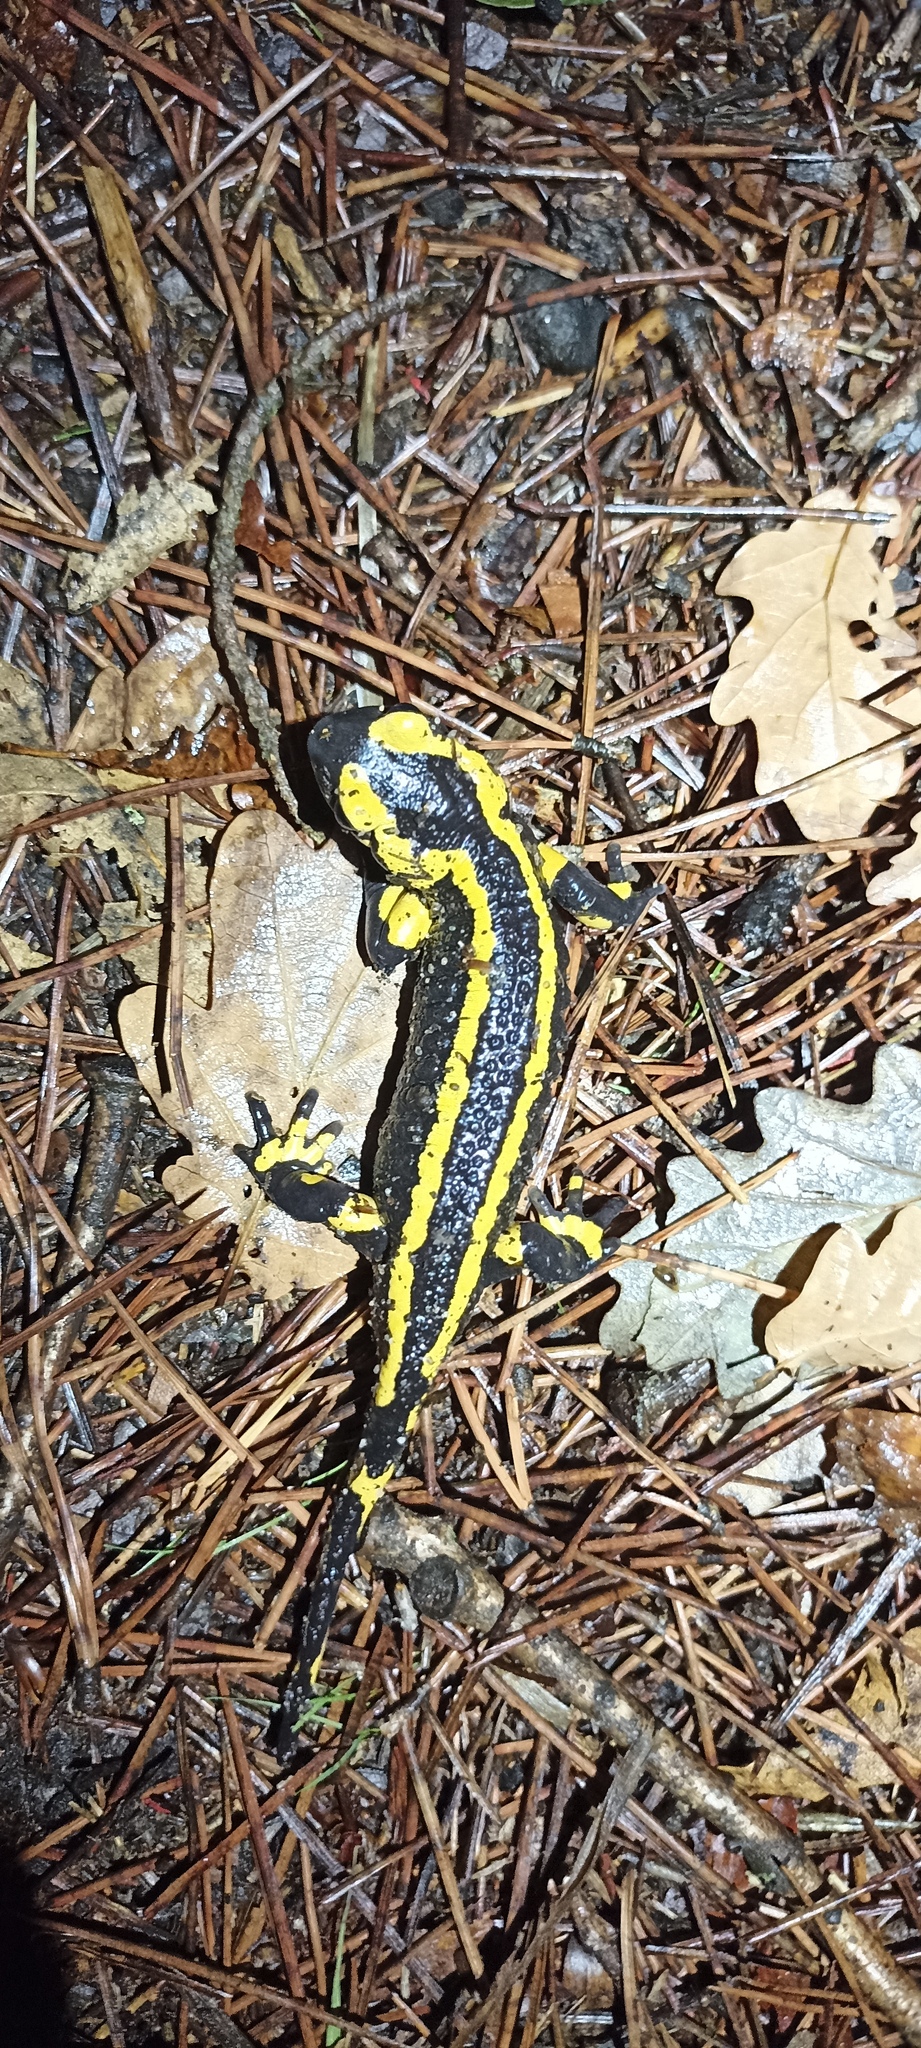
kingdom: Animalia
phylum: Chordata
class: Amphibia
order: Caudata
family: Salamandridae
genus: Salamandra
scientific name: Salamandra salamandra
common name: Fire salamander
